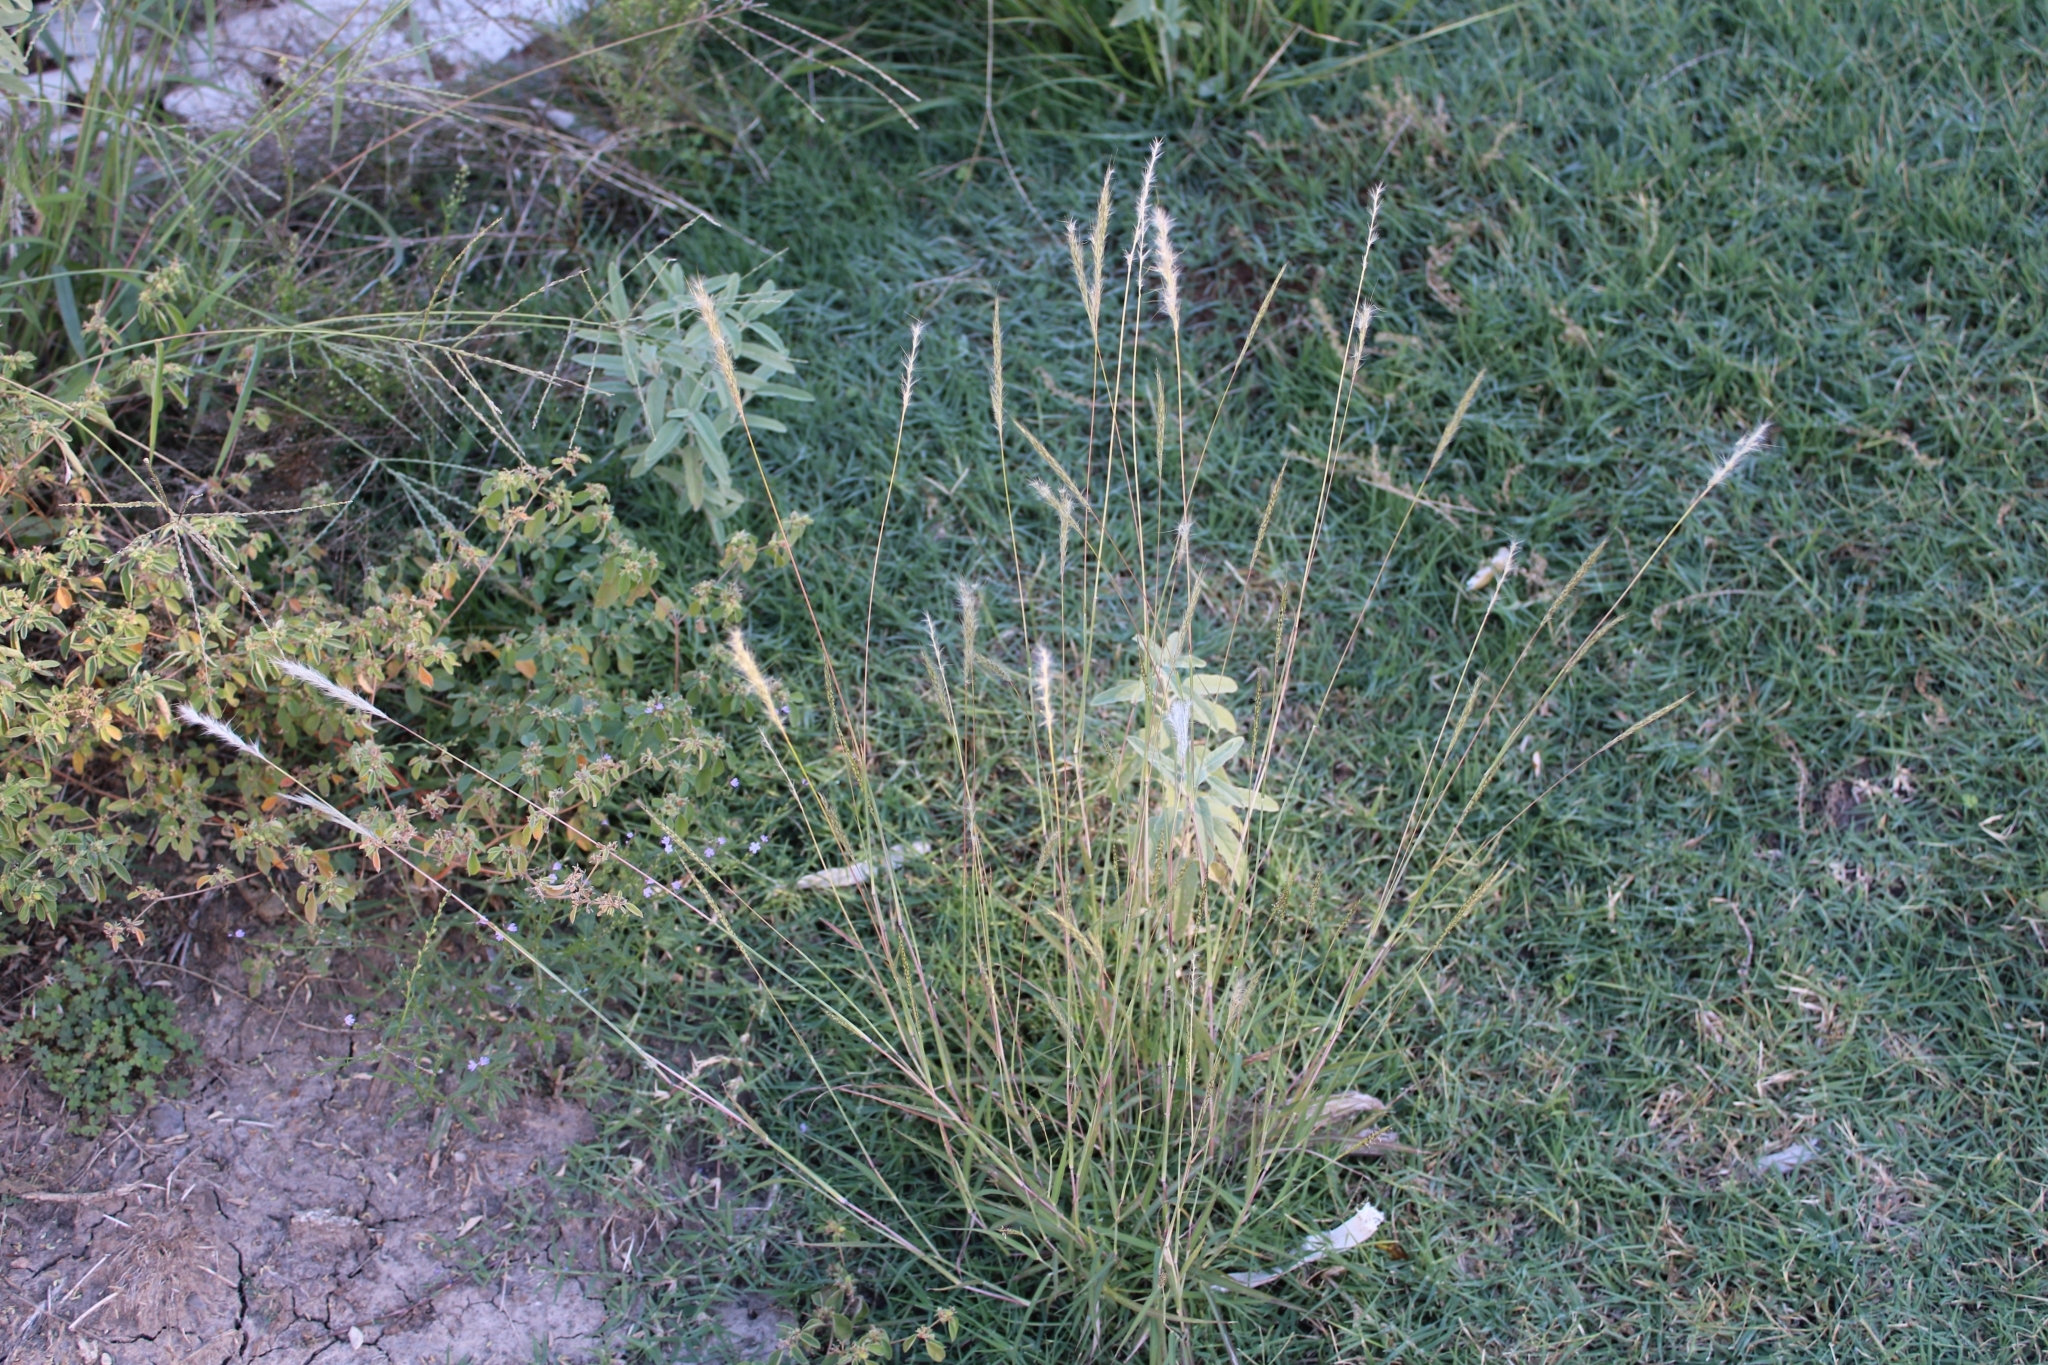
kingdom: Plantae
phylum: Tracheophyta
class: Liliopsida
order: Poales
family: Poaceae
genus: Bothriochloa
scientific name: Bothriochloa torreyana
